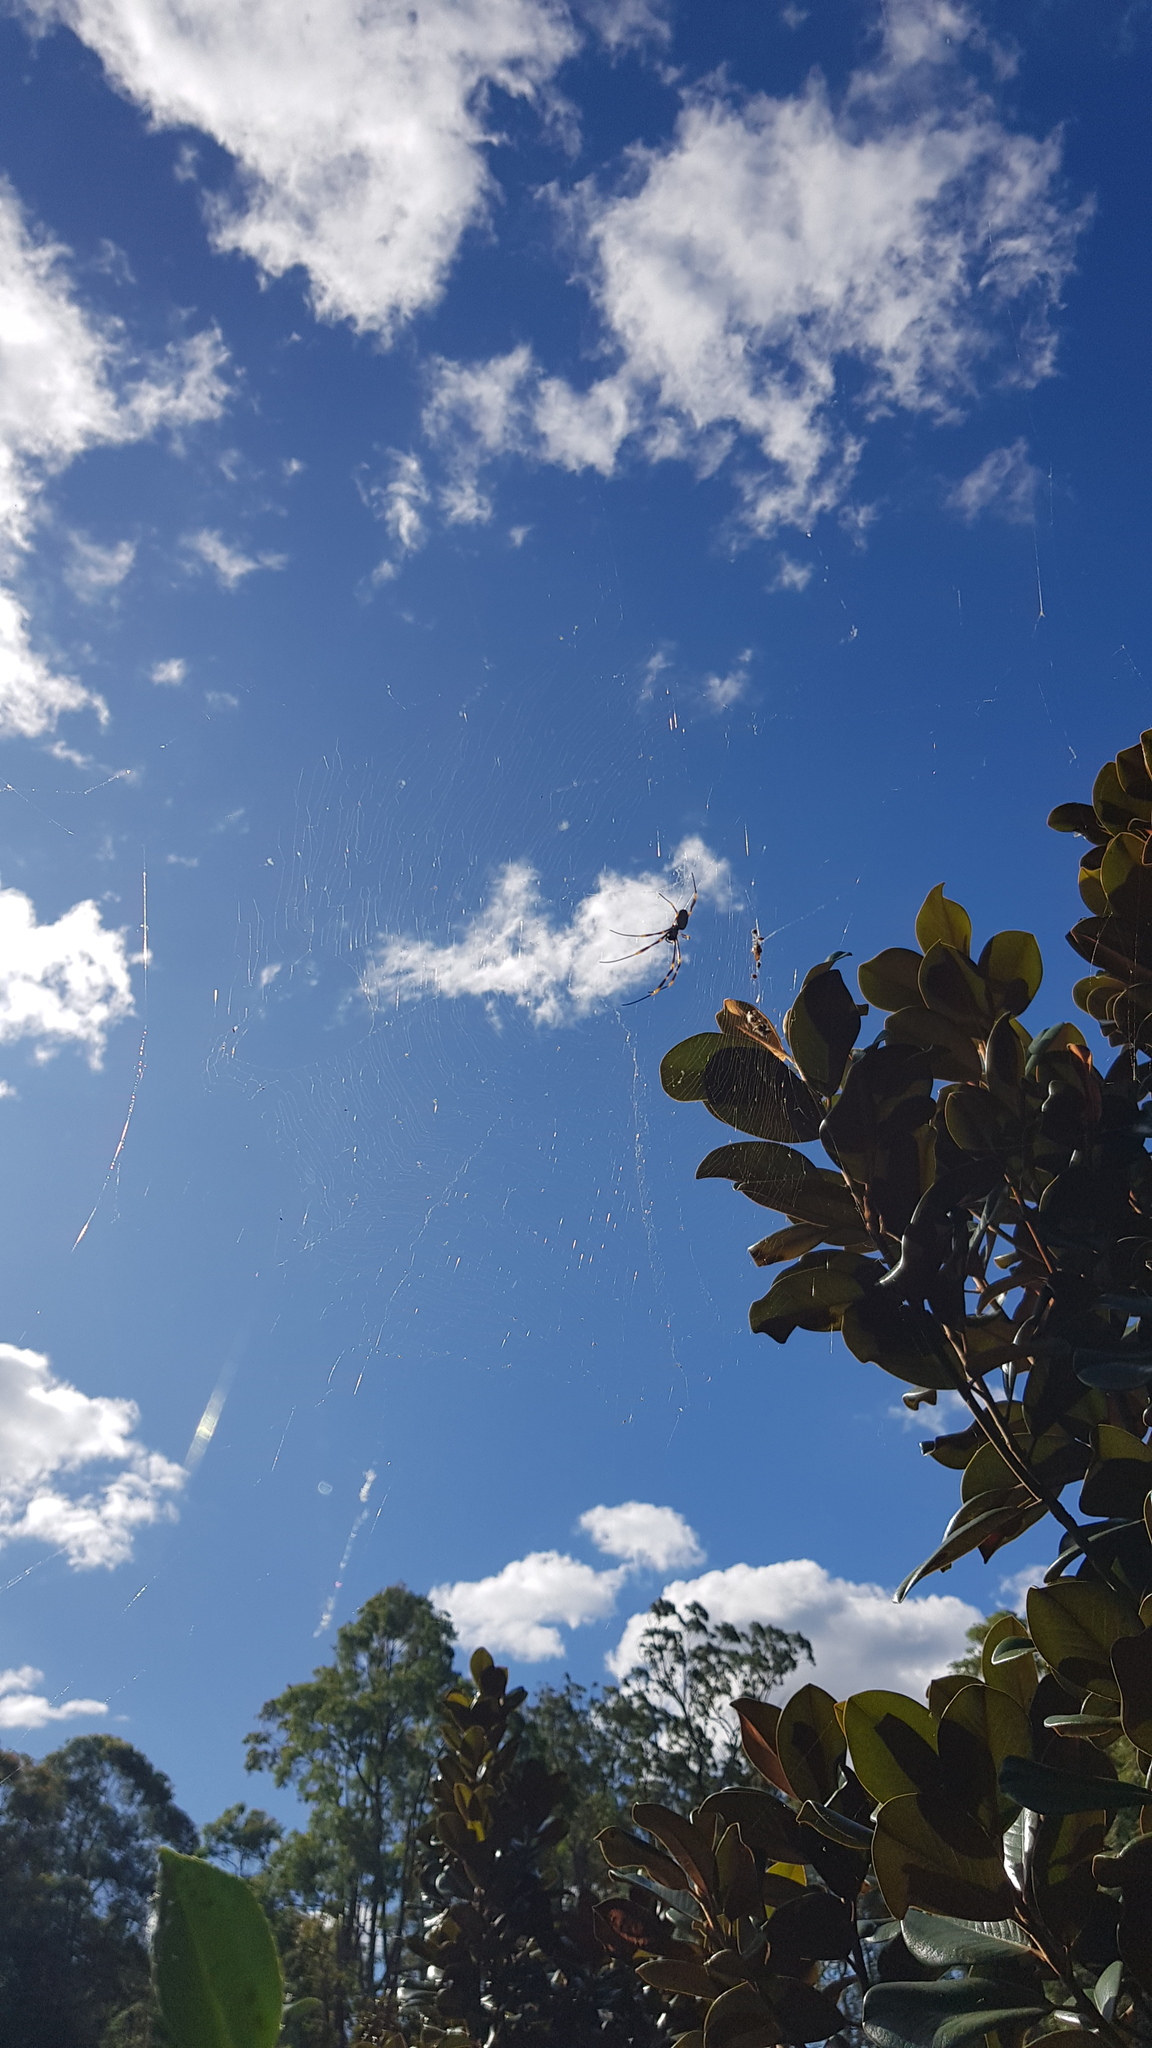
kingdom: Animalia
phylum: Arthropoda
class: Arachnida
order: Araneae
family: Araneidae
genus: Trichonephila
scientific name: Trichonephila plumipes
